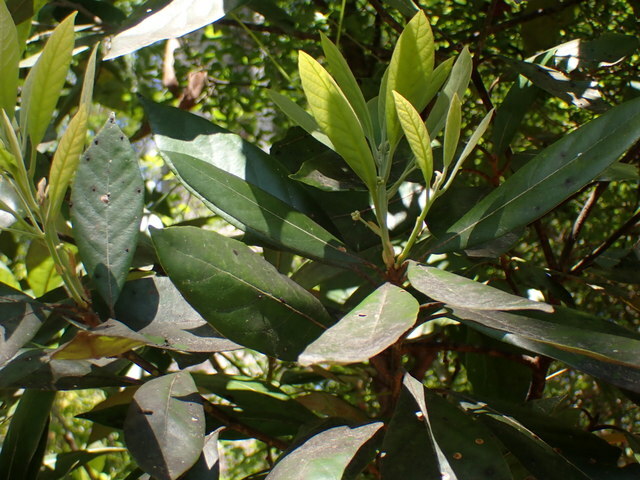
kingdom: Plantae
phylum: Tracheophyta
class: Magnoliopsida
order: Laurales
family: Lauraceae
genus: Persea
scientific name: Persea palustris
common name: Swampbay
